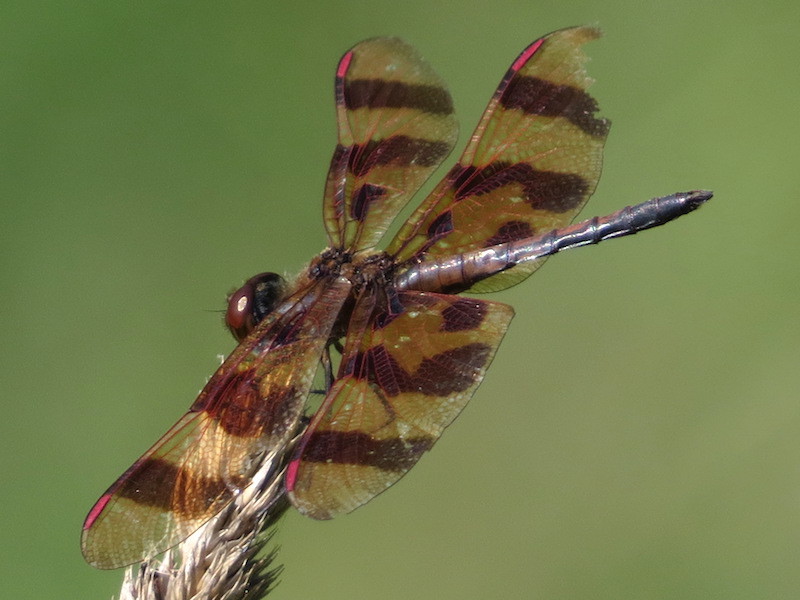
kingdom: Animalia
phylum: Arthropoda
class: Insecta
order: Odonata
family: Libellulidae
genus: Celithemis
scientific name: Celithemis eponina
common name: Halloween pennant
